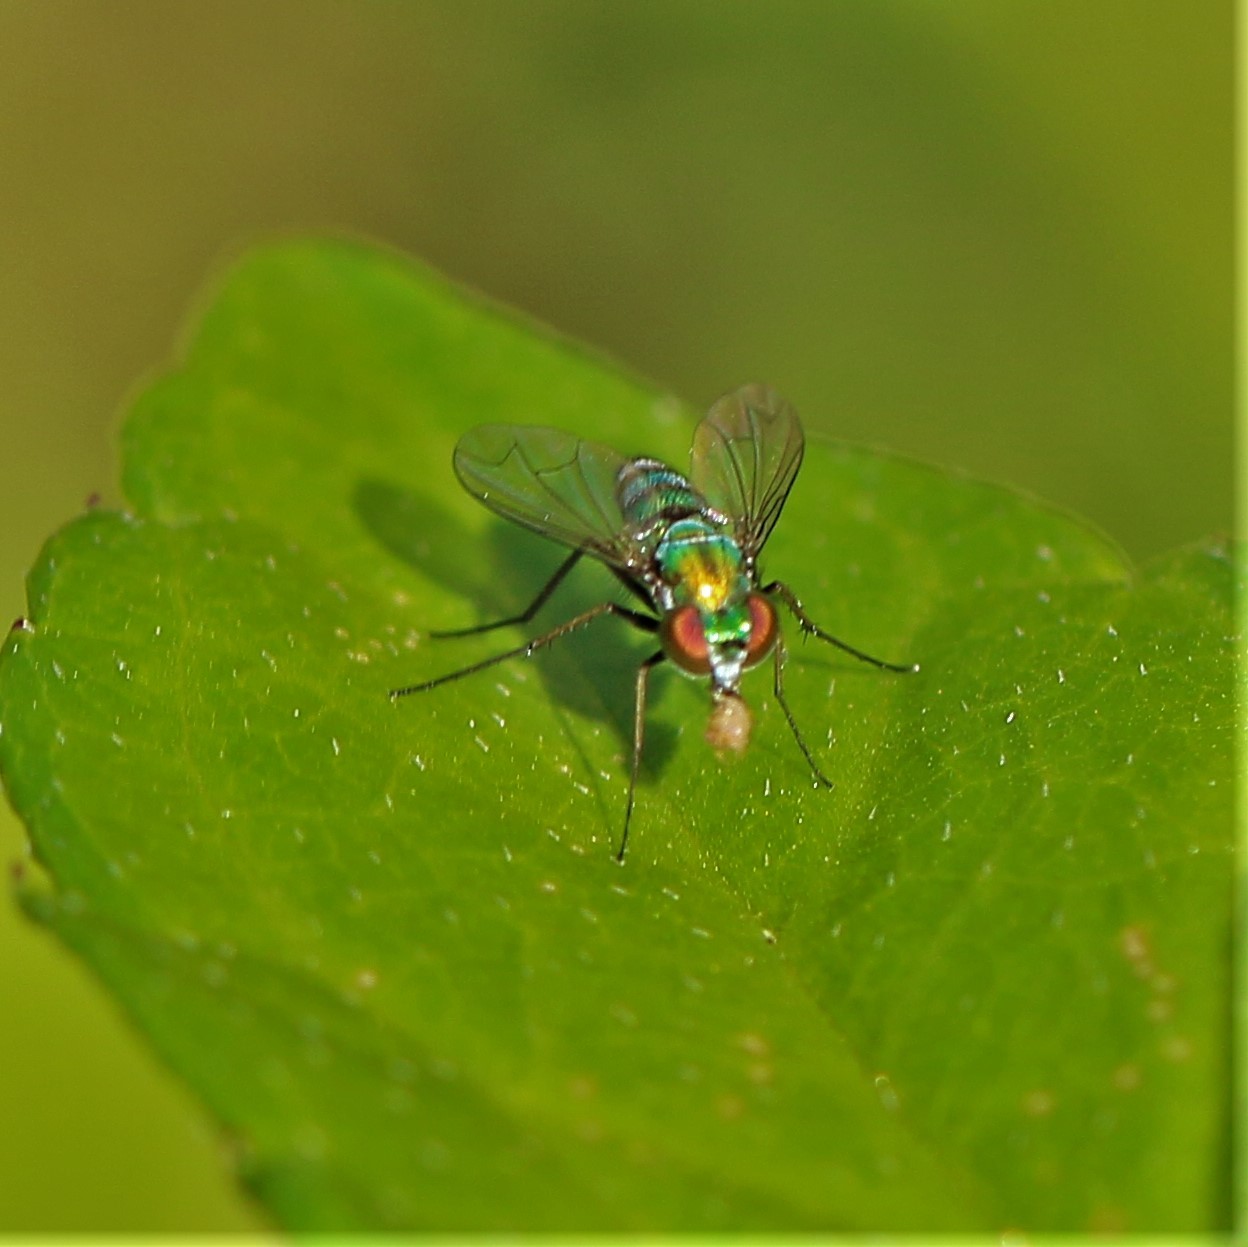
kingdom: Animalia
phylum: Arthropoda
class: Insecta
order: Diptera
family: Dolichopodidae
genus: Condylostylus
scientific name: Condylostylus longicornis
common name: Long-legged fly
